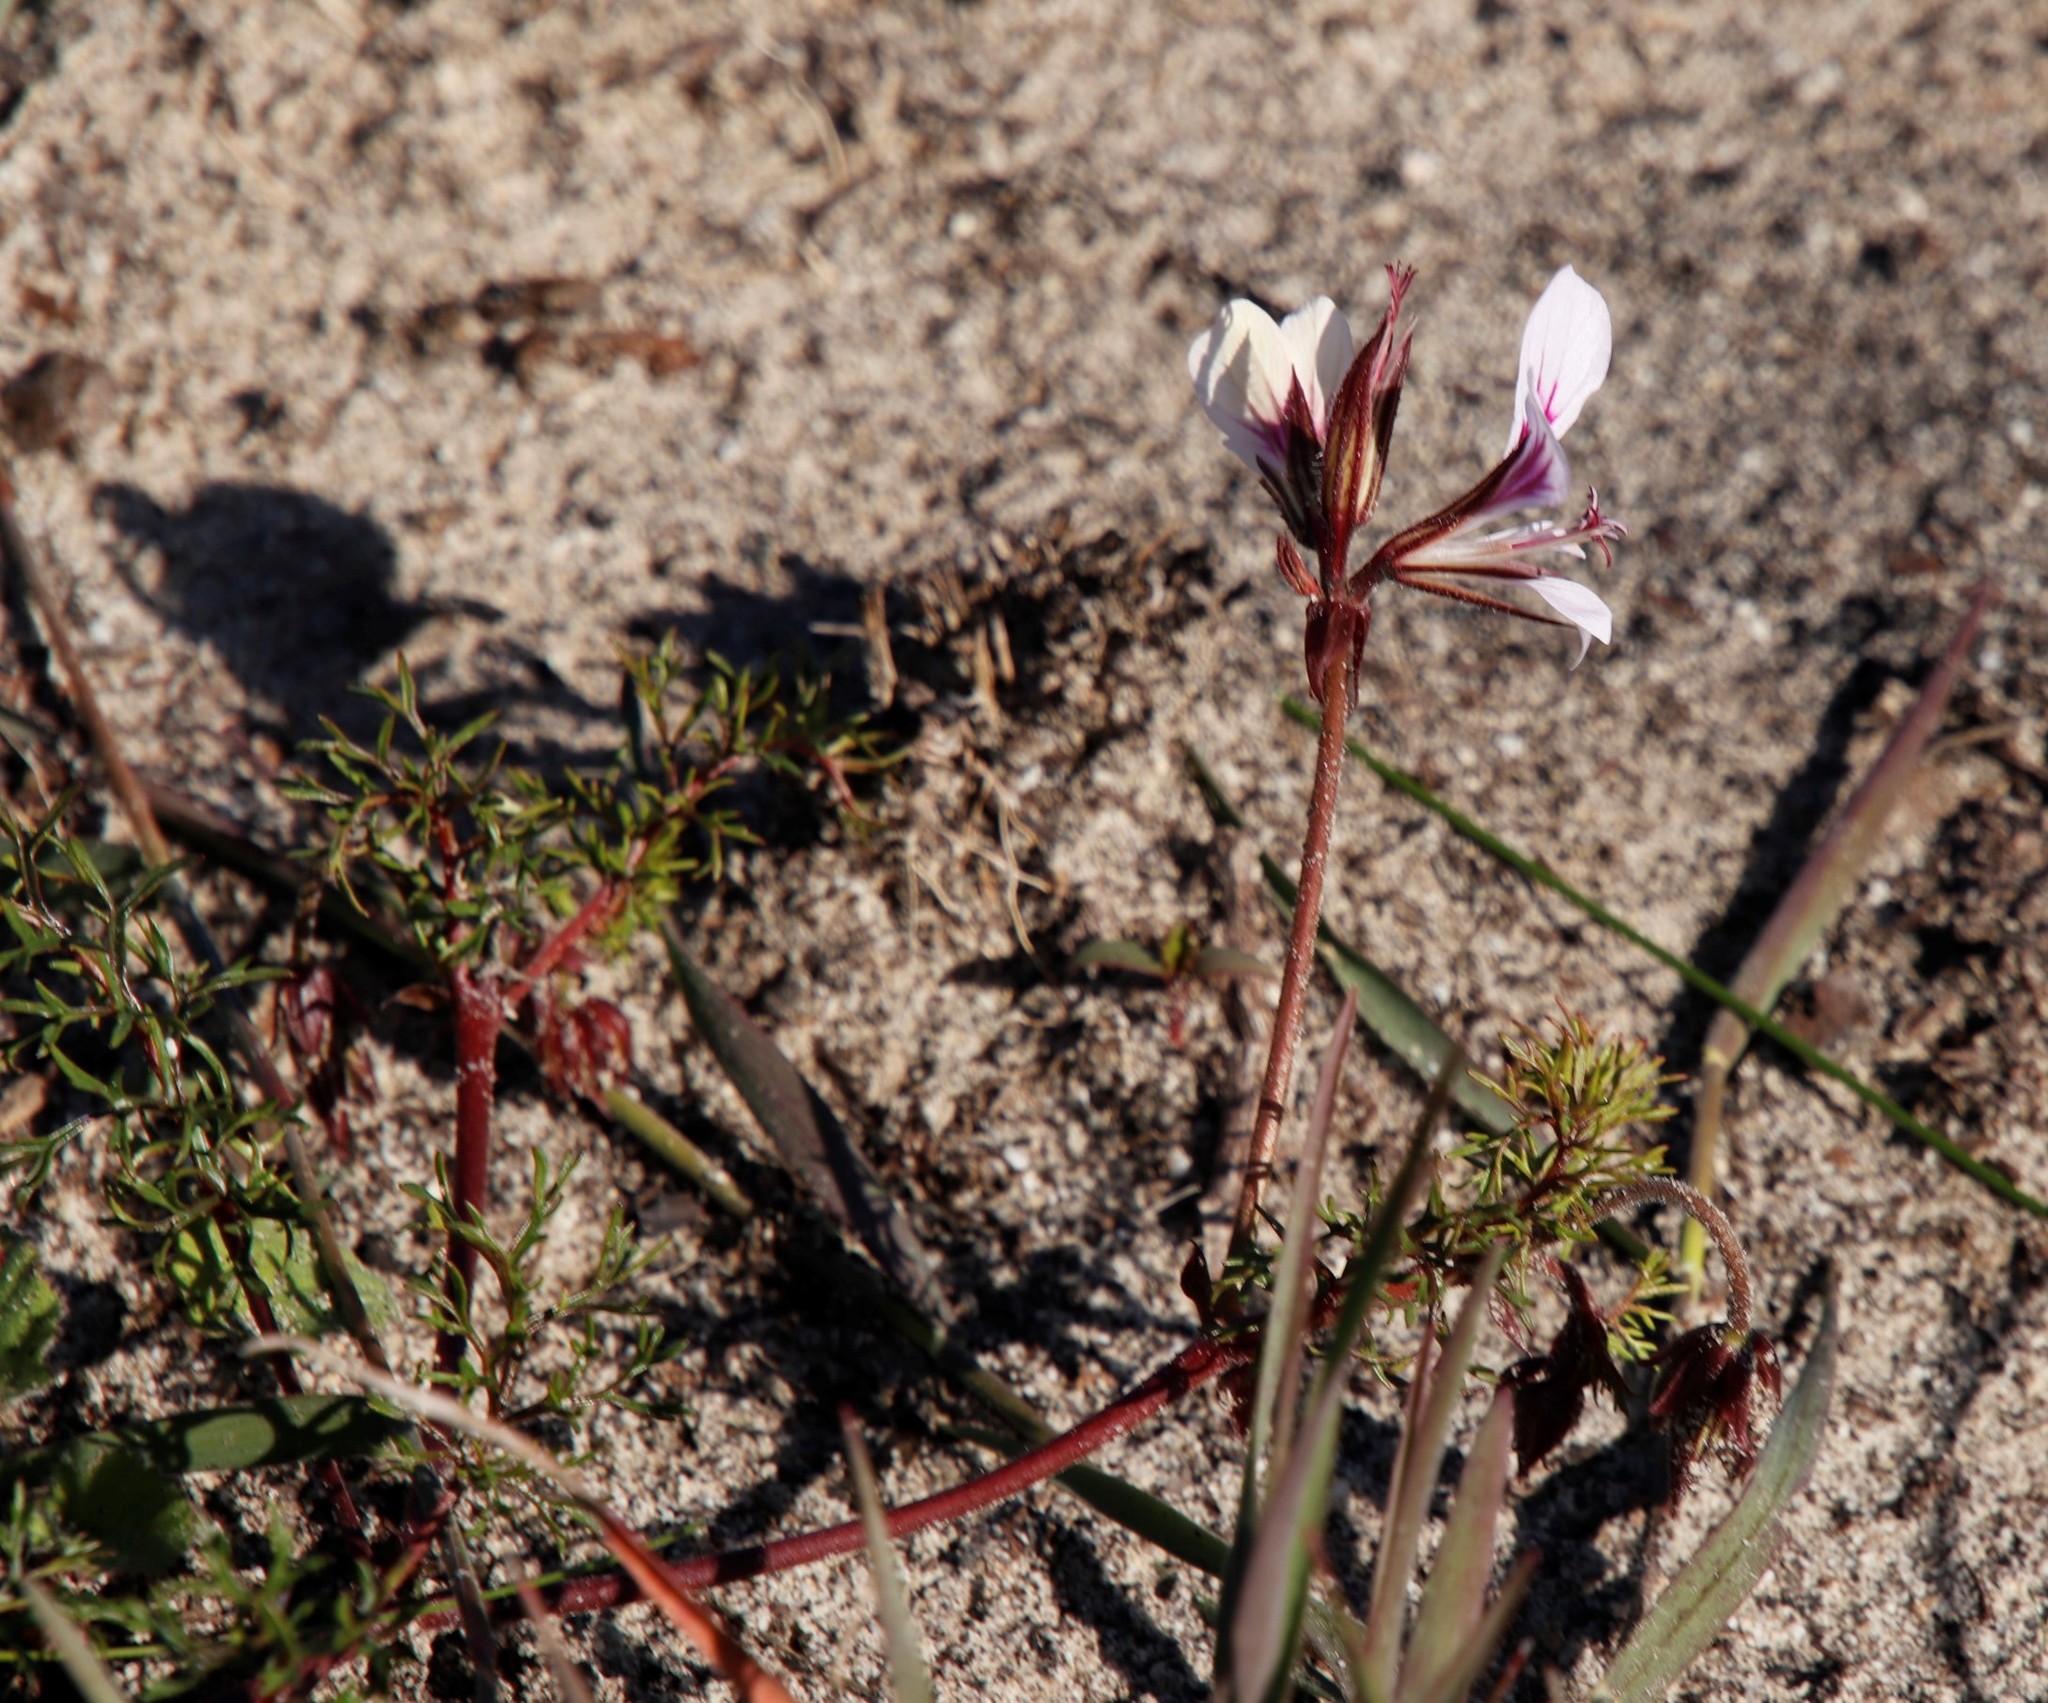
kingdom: Plantae
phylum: Tracheophyta
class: Magnoliopsida
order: Geraniales
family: Geraniaceae
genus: Pelargonium
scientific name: Pelargonium myrrhifolium
